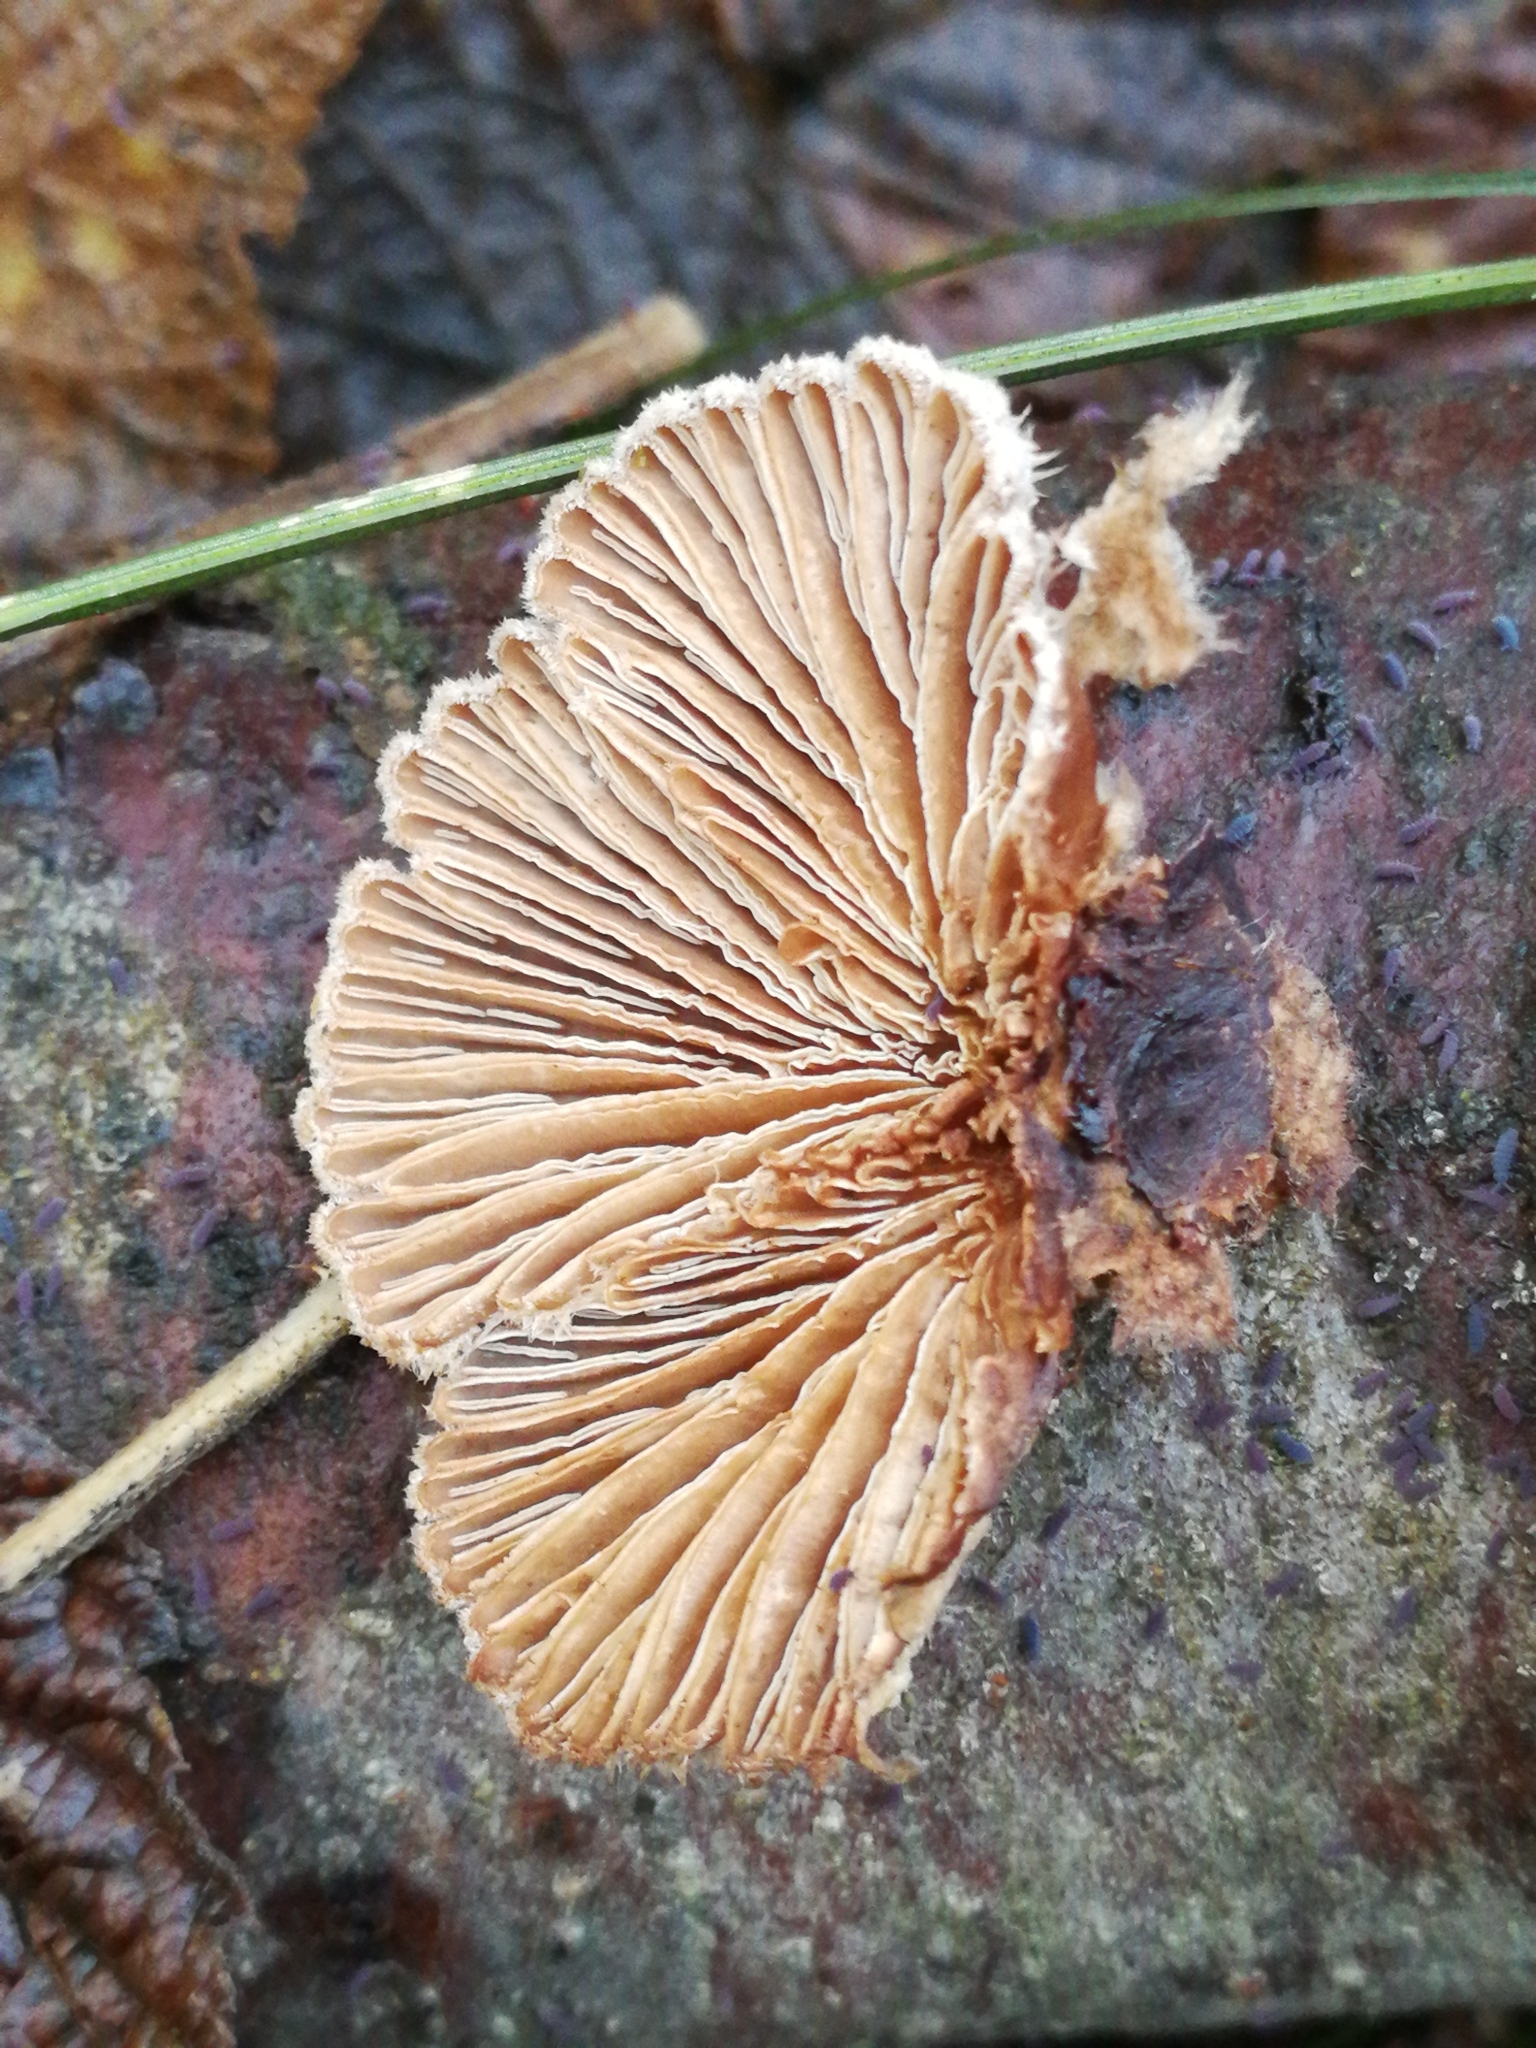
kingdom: Fungi
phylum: Basidiomycota
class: Agaricomycetes
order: Agaricales
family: Schizophyllaceae
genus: Schizophyllum
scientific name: Schizophyllum commune
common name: Common porecrust
